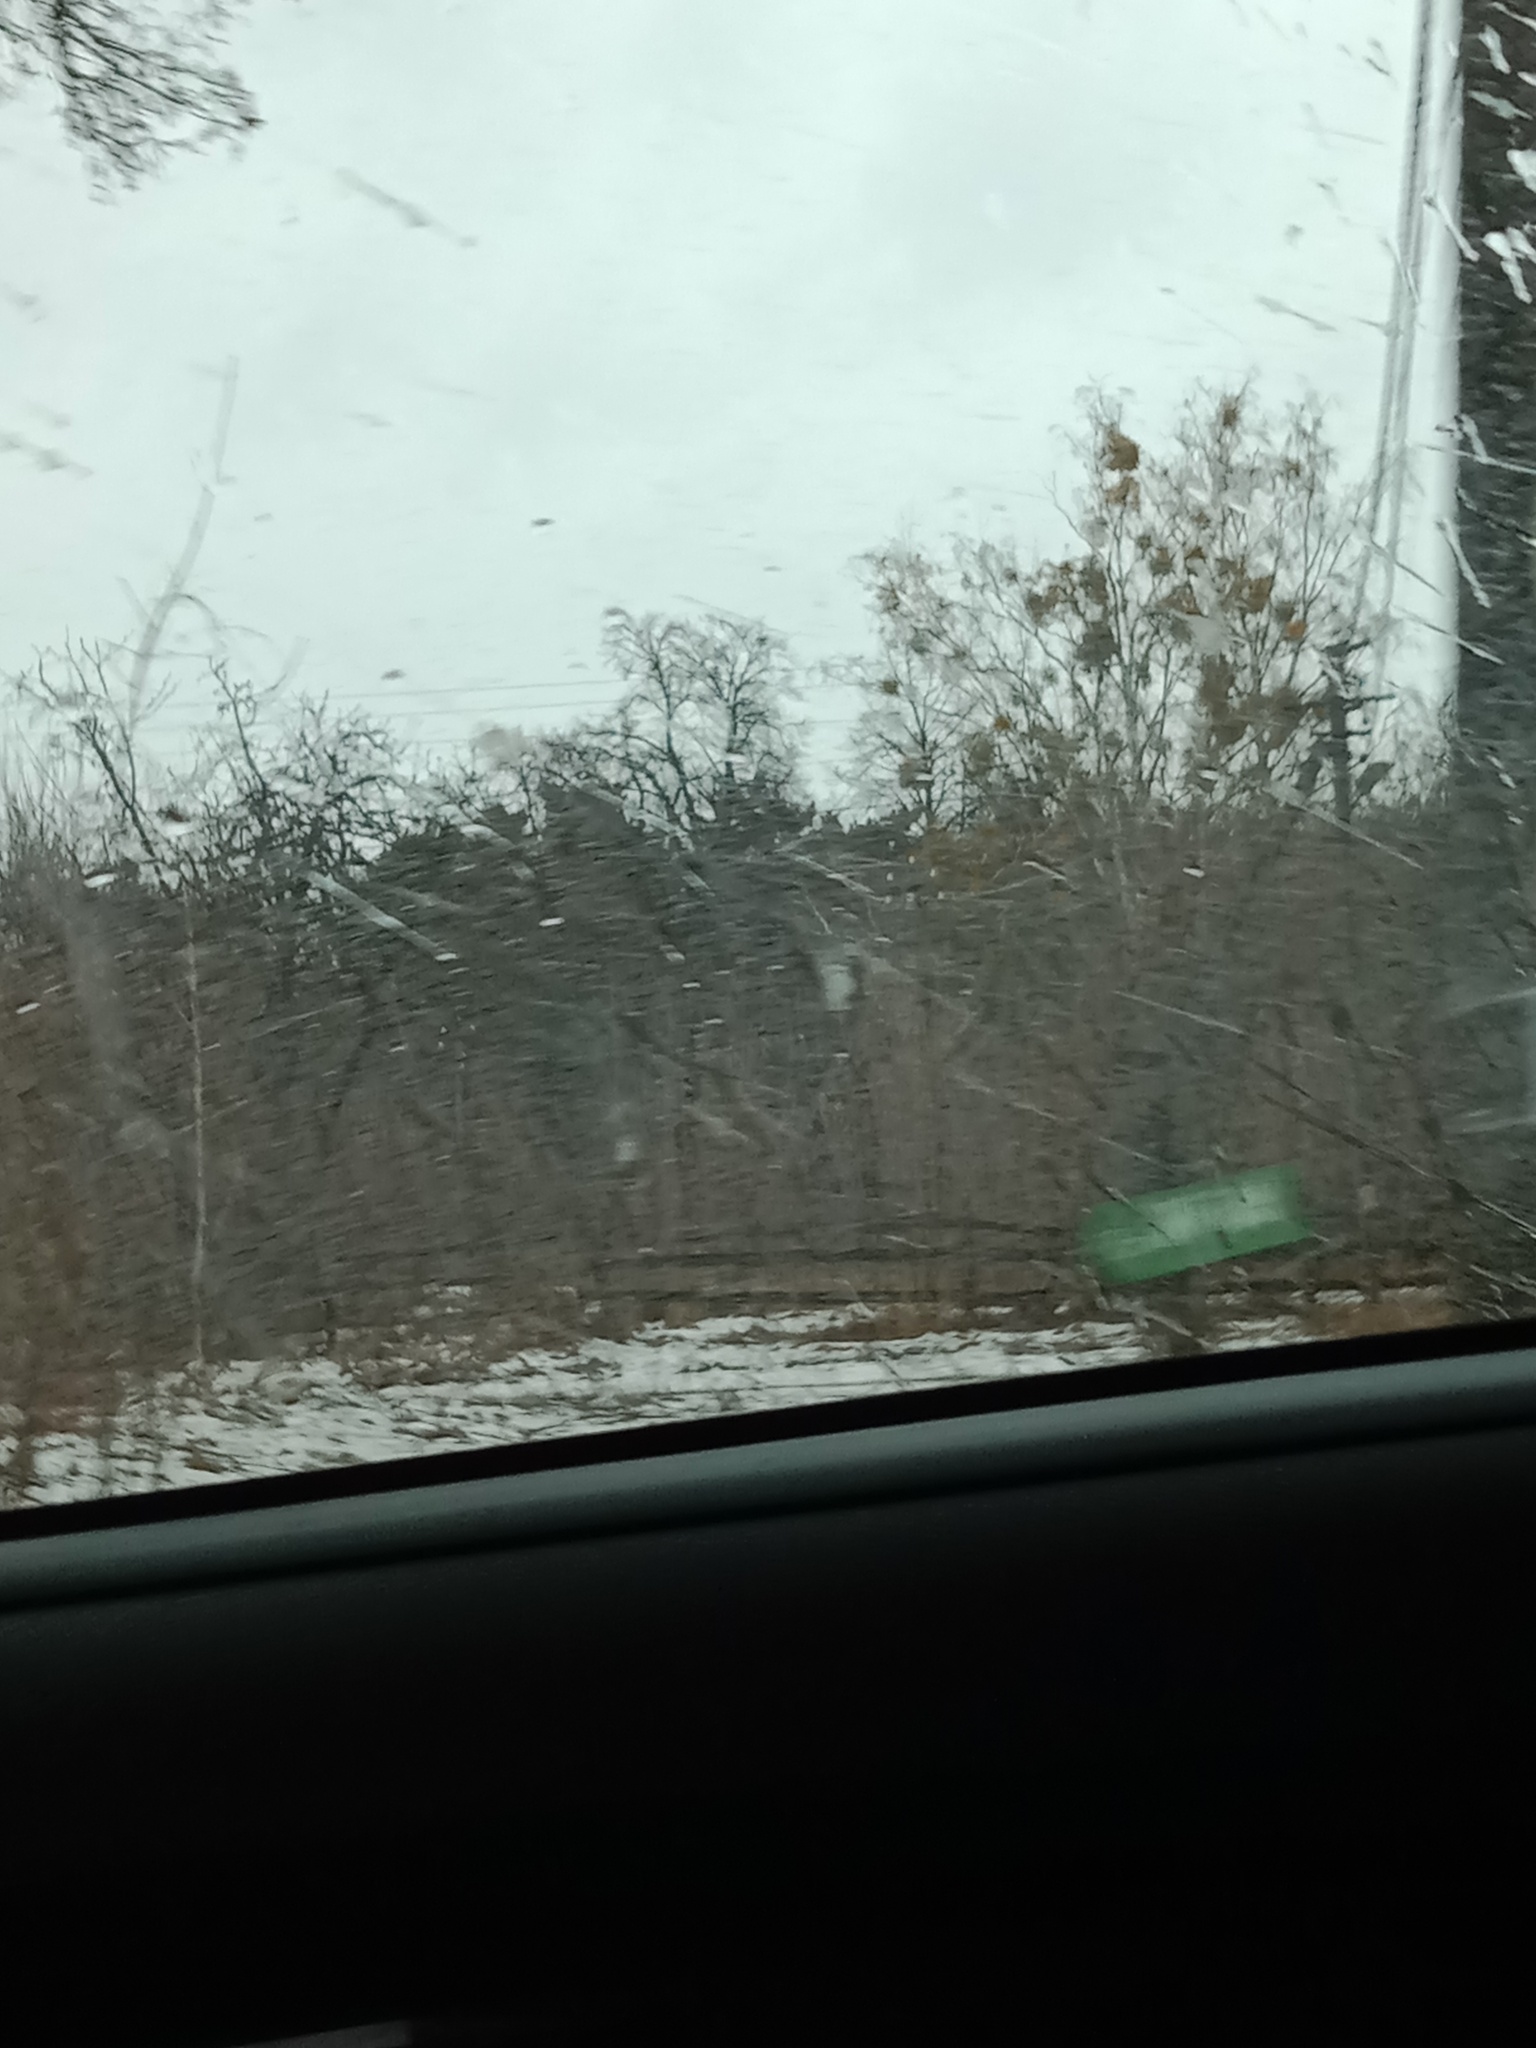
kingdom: Plantae
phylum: Tracheophyta
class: Magnoliopsida
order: Santalales
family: Viscaceae
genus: Viscum
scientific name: Viscum album
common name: Mistletoe
